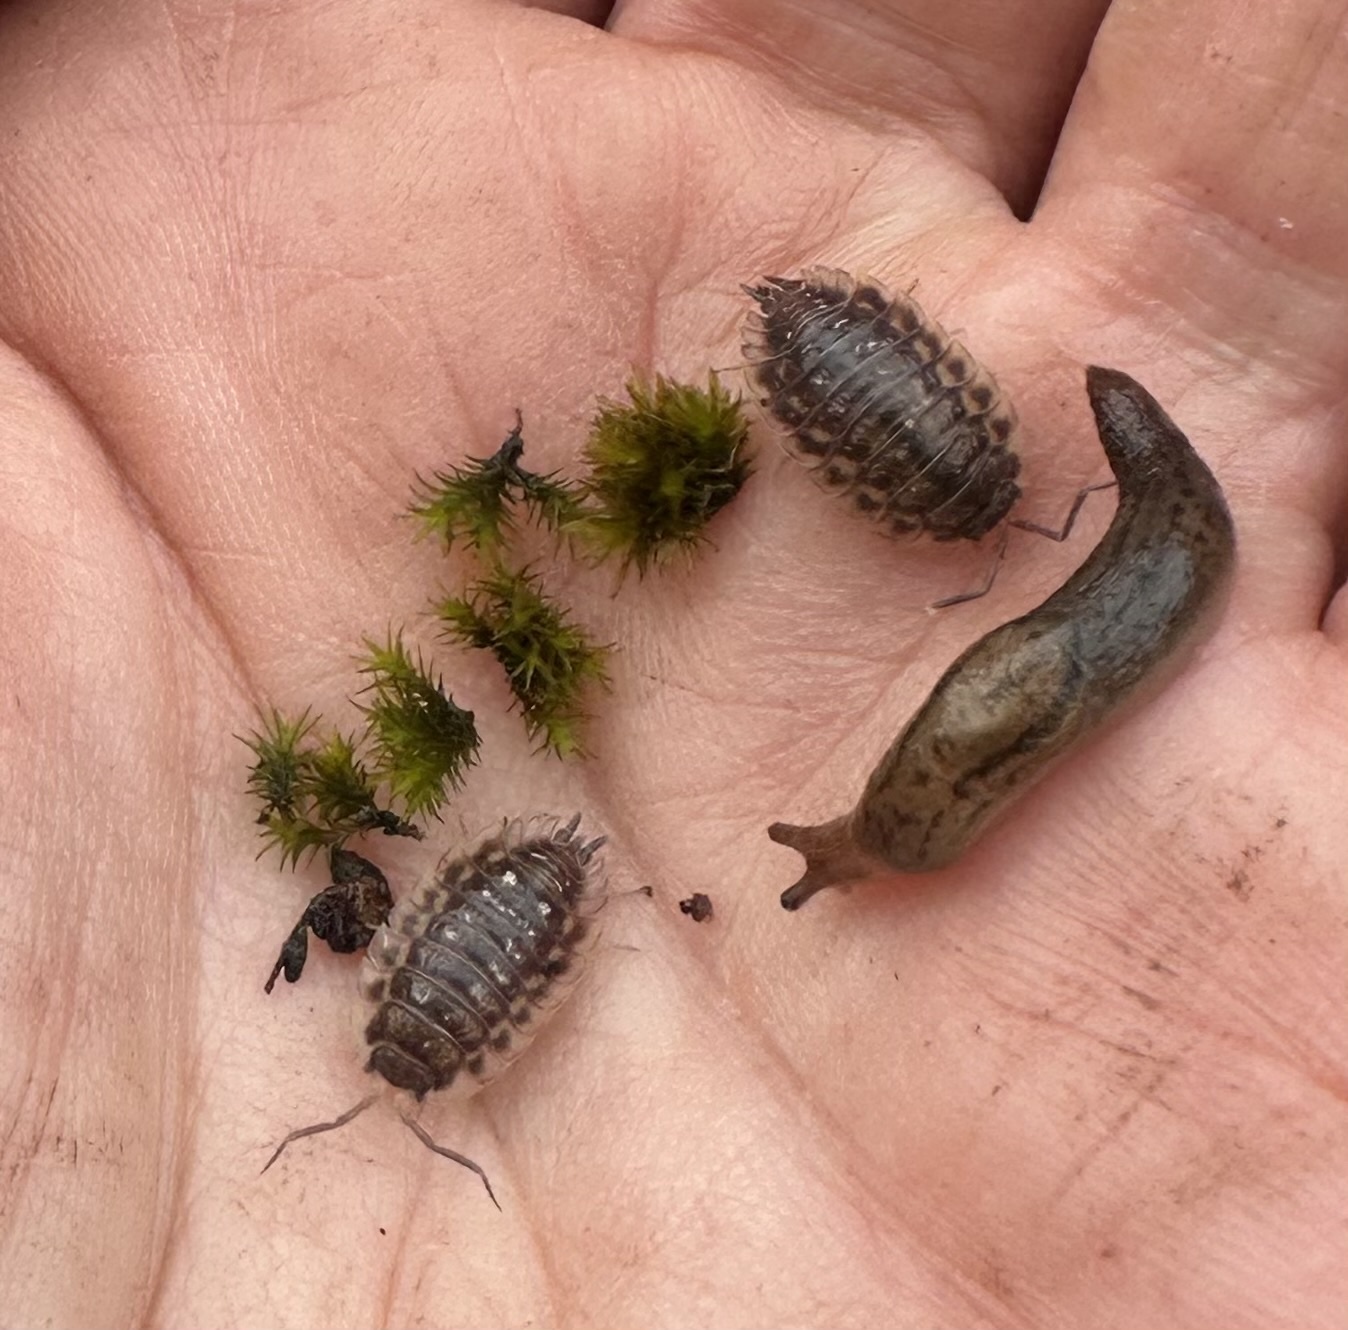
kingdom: Animalia
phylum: Arthropoda
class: Malacostraca
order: Isopoda
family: Oniscidae
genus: Oniscus
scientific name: Oniscus asellus
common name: Common shiny woodlouse
